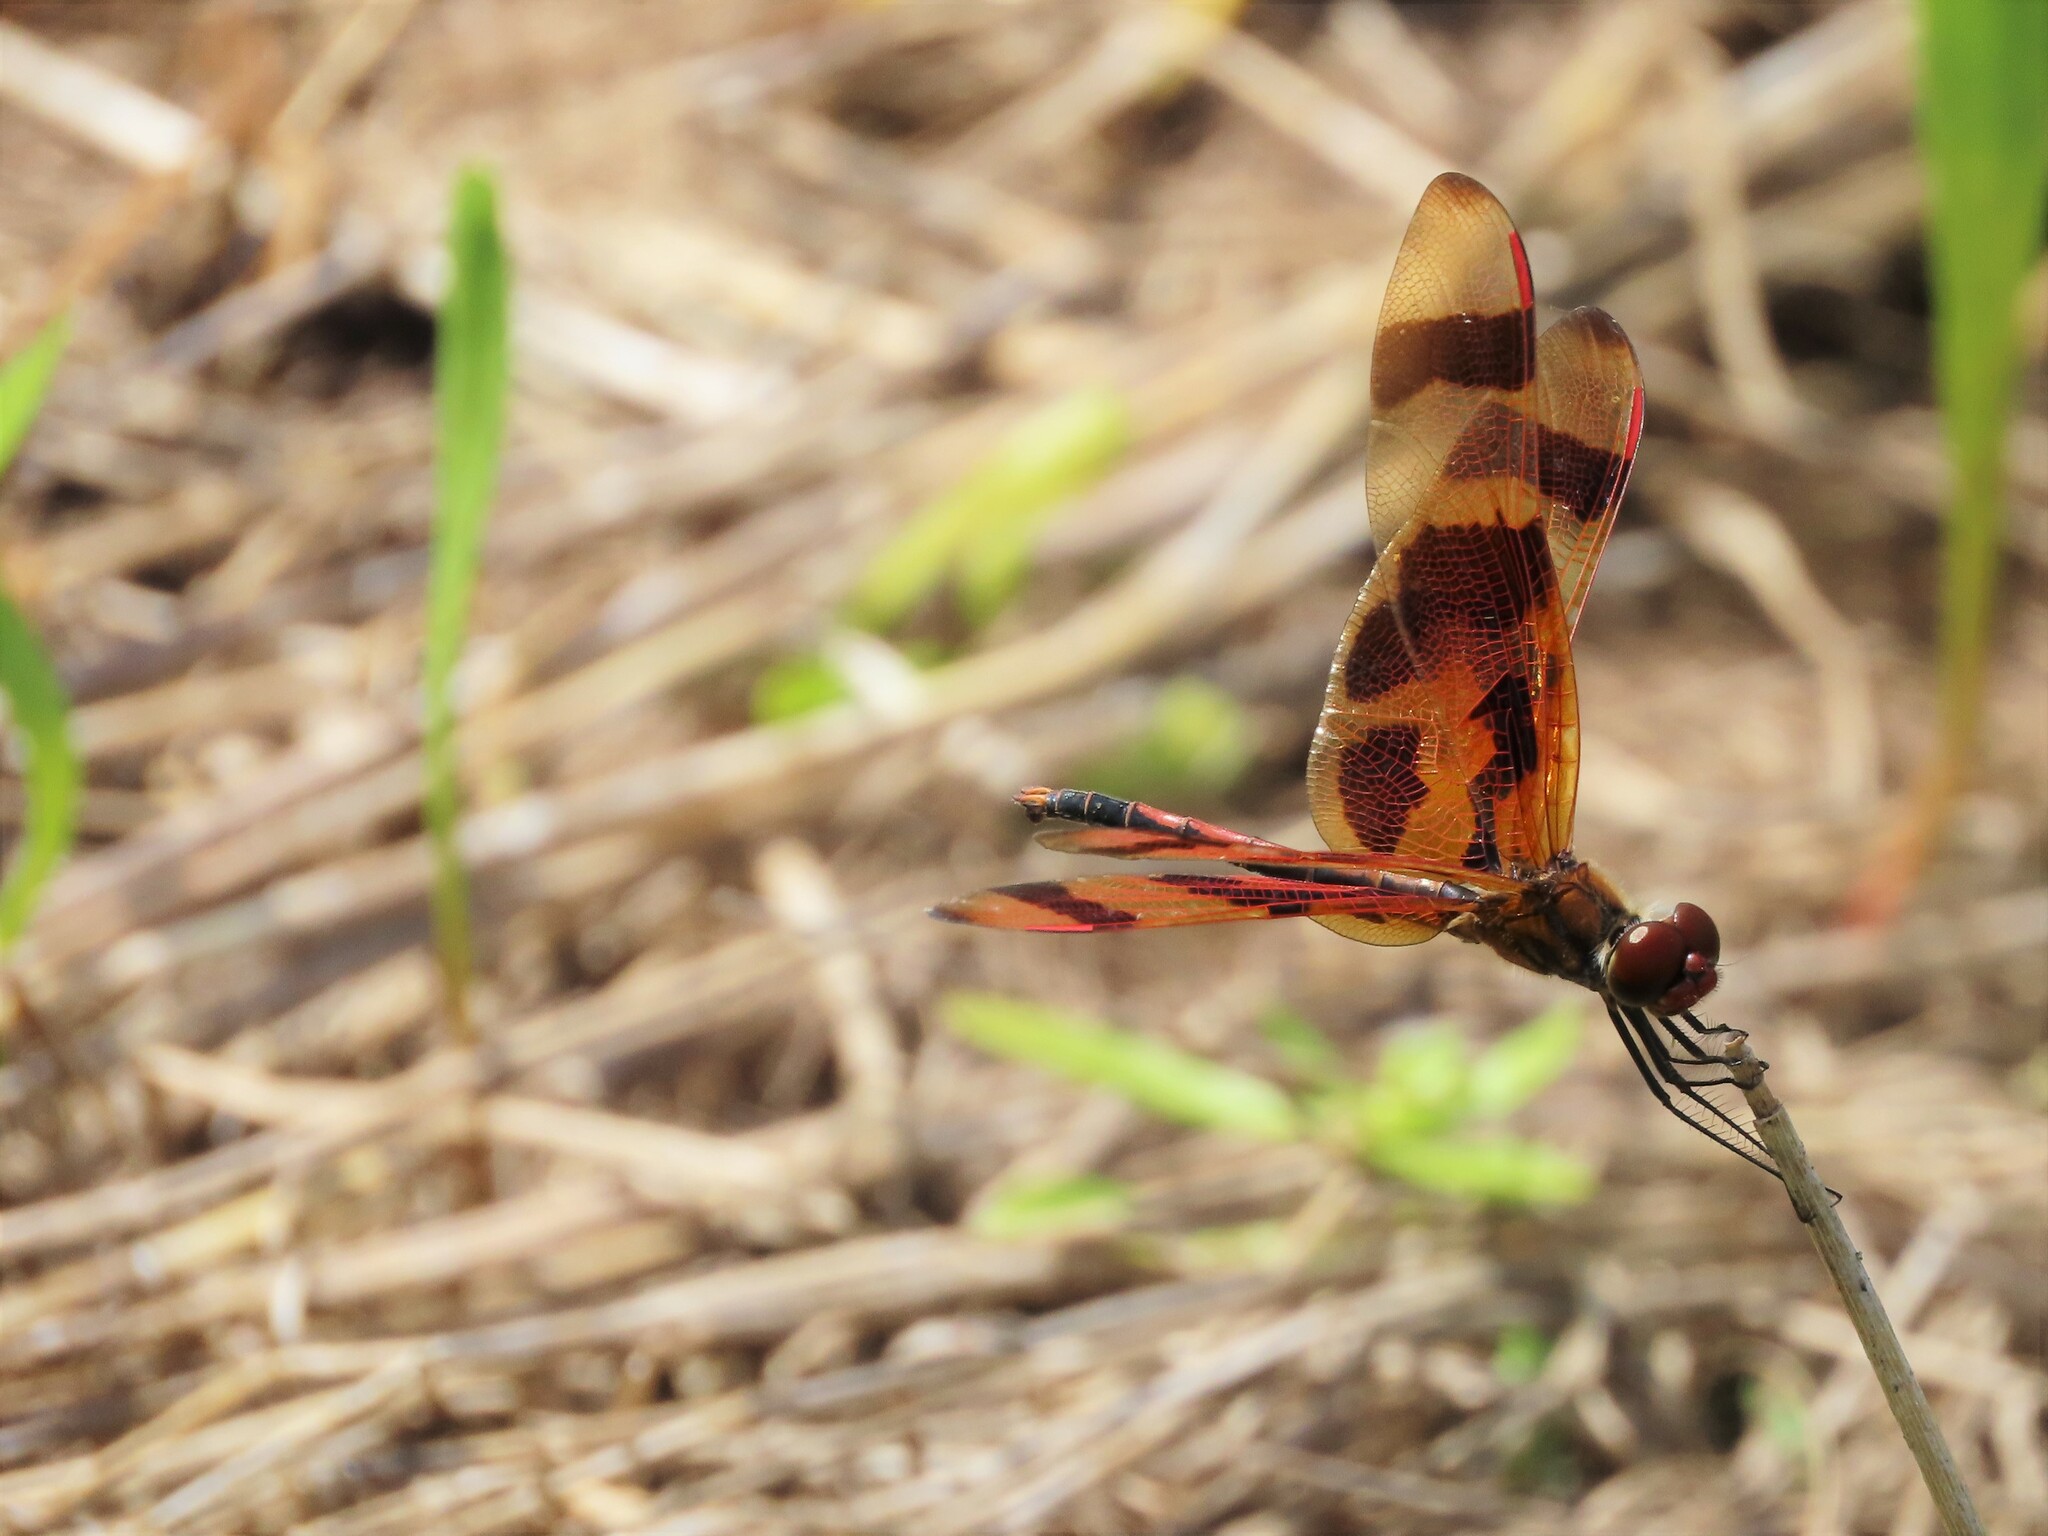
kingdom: Animalia
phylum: Arthropoda
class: Insecta
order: Odonata
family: Libellulidae
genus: Celithemis
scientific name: Celithemis eponina
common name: Halloween pennant
